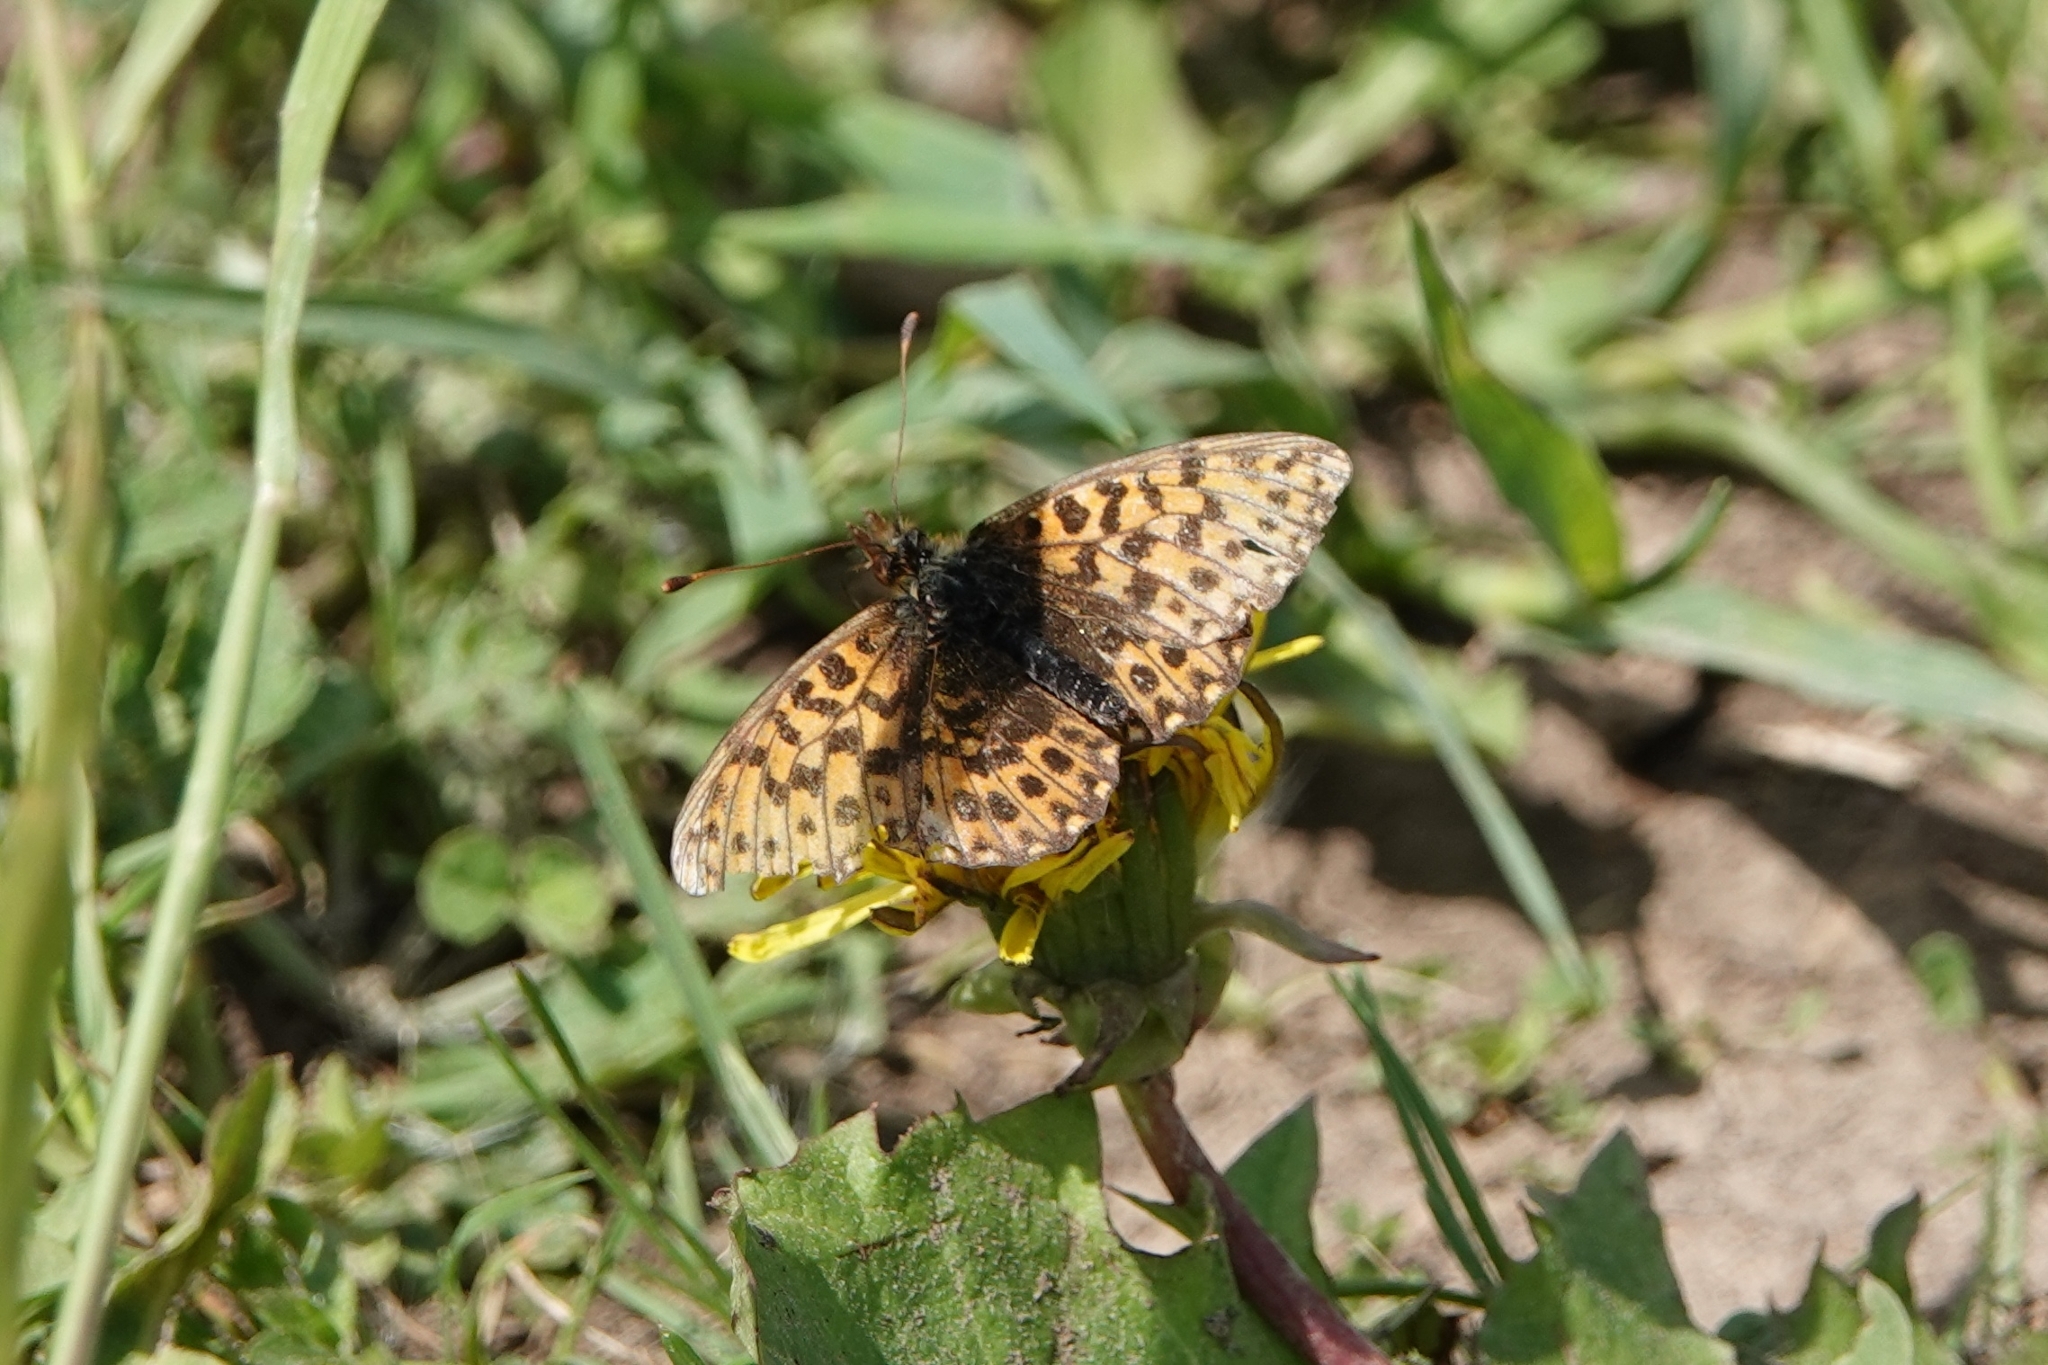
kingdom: Animalia
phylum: Arthropoda
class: Insecta
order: Lepidoptera
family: Nymphalidae
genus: Boloria
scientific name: Boloria dia
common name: Weaver's fritillary
